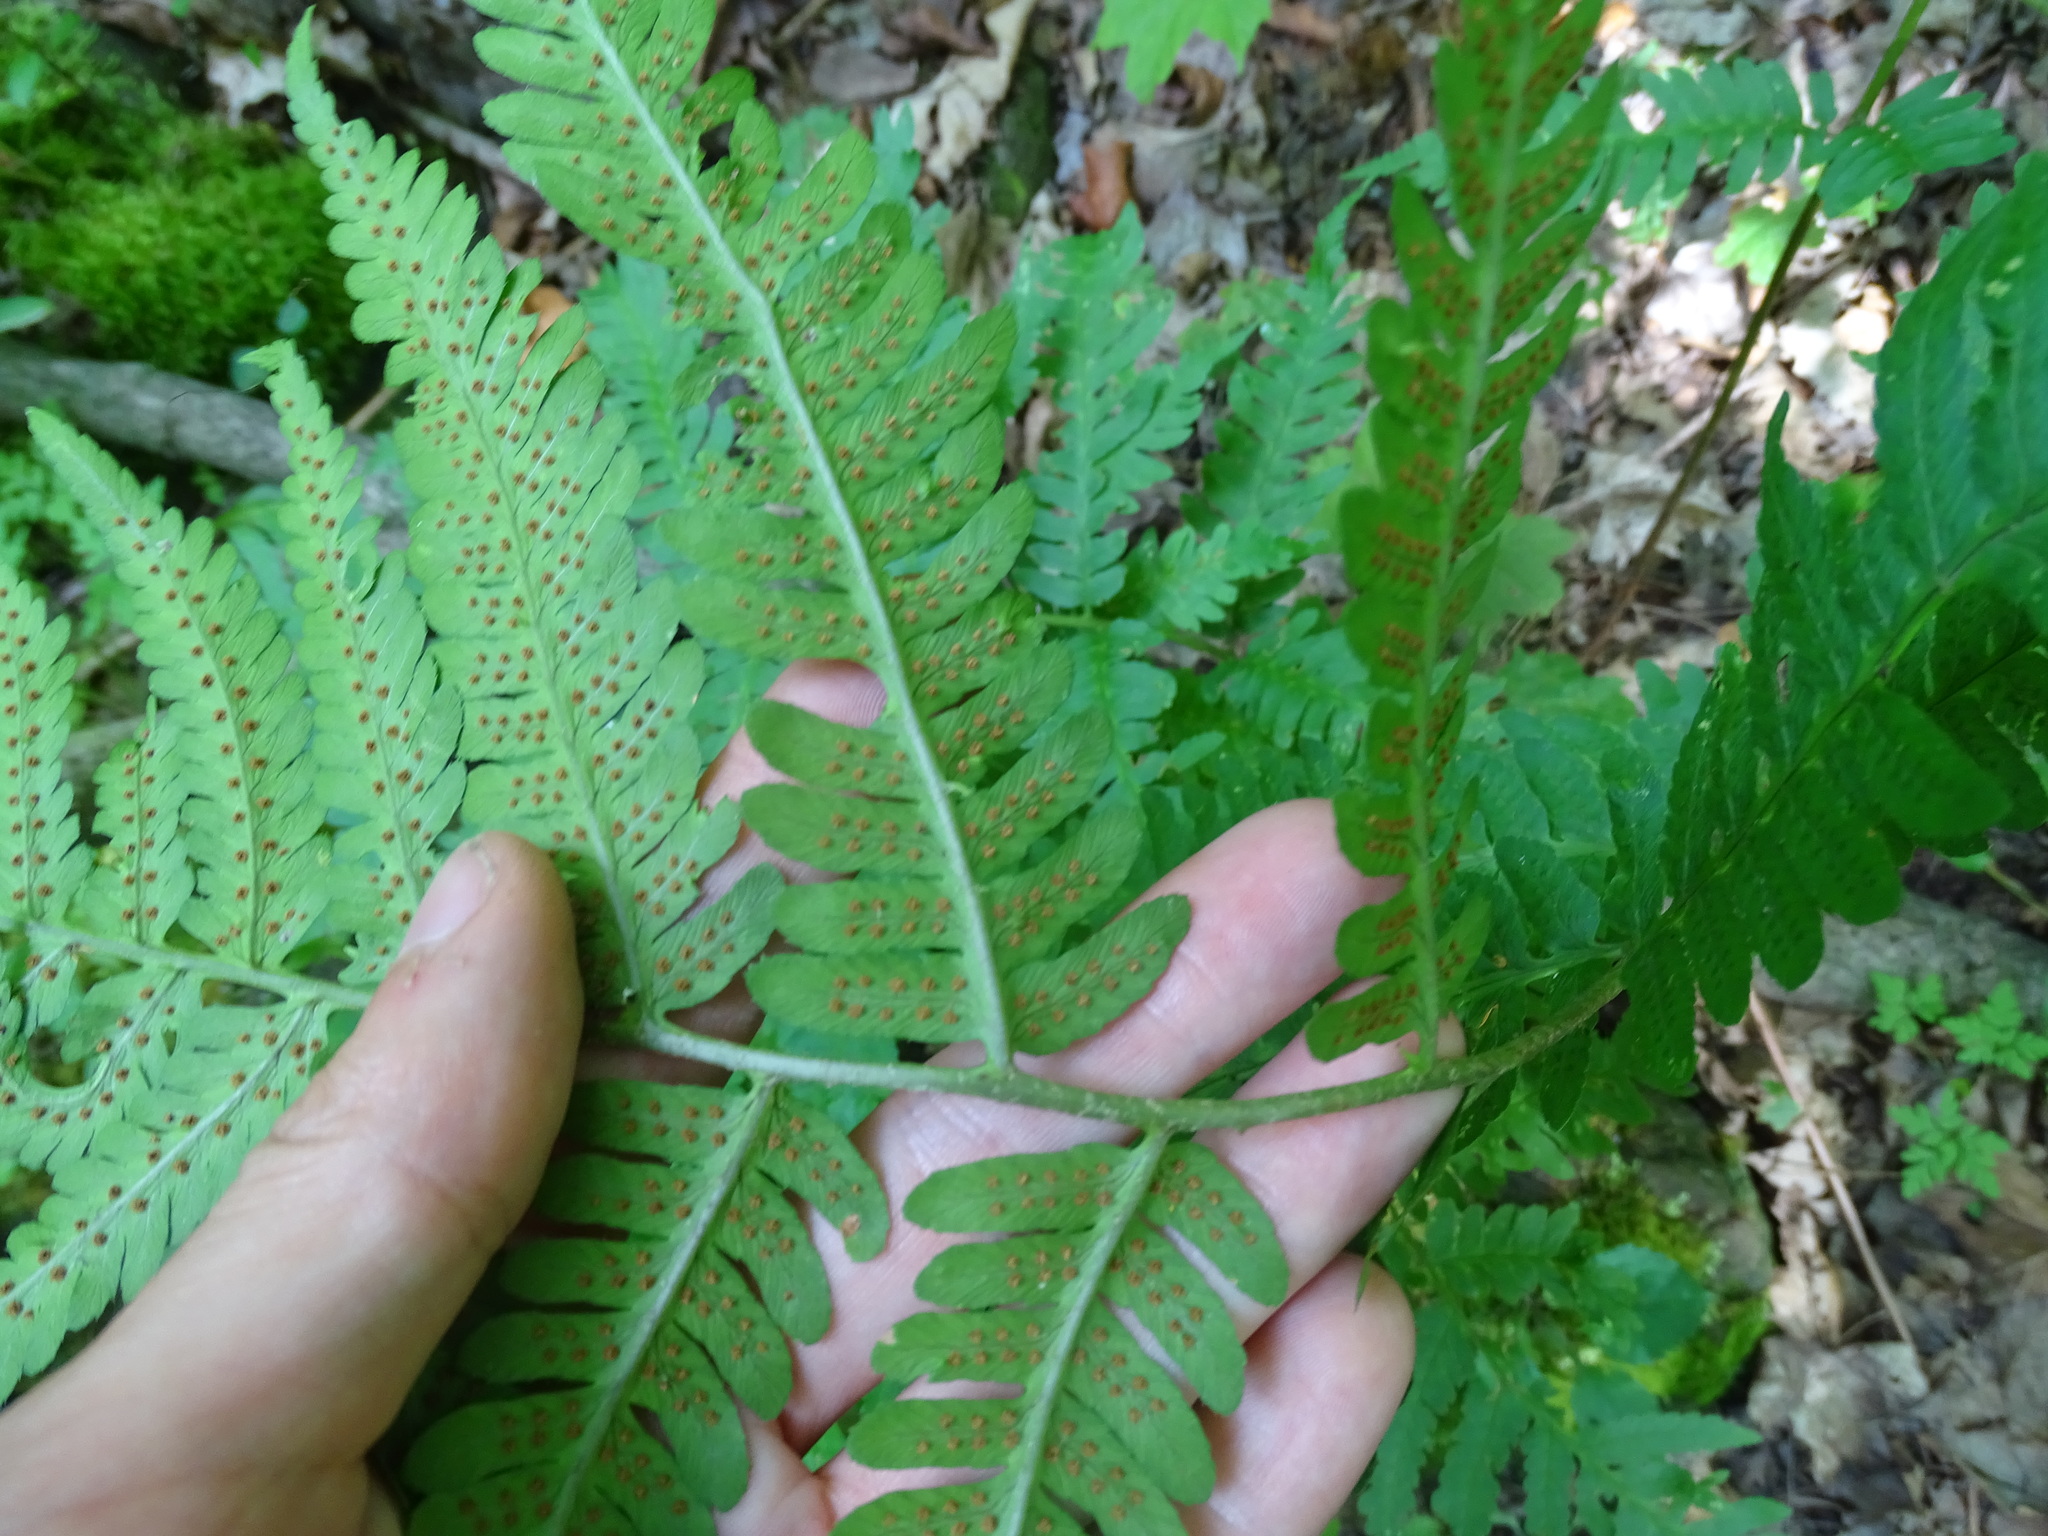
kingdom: Plantae
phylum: Tracheophyta
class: Polypodiopsida
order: Polypodiales
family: Dryopteridaceae
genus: Dryopteris
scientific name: Dryopteris goldieana
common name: Goldie's fern
